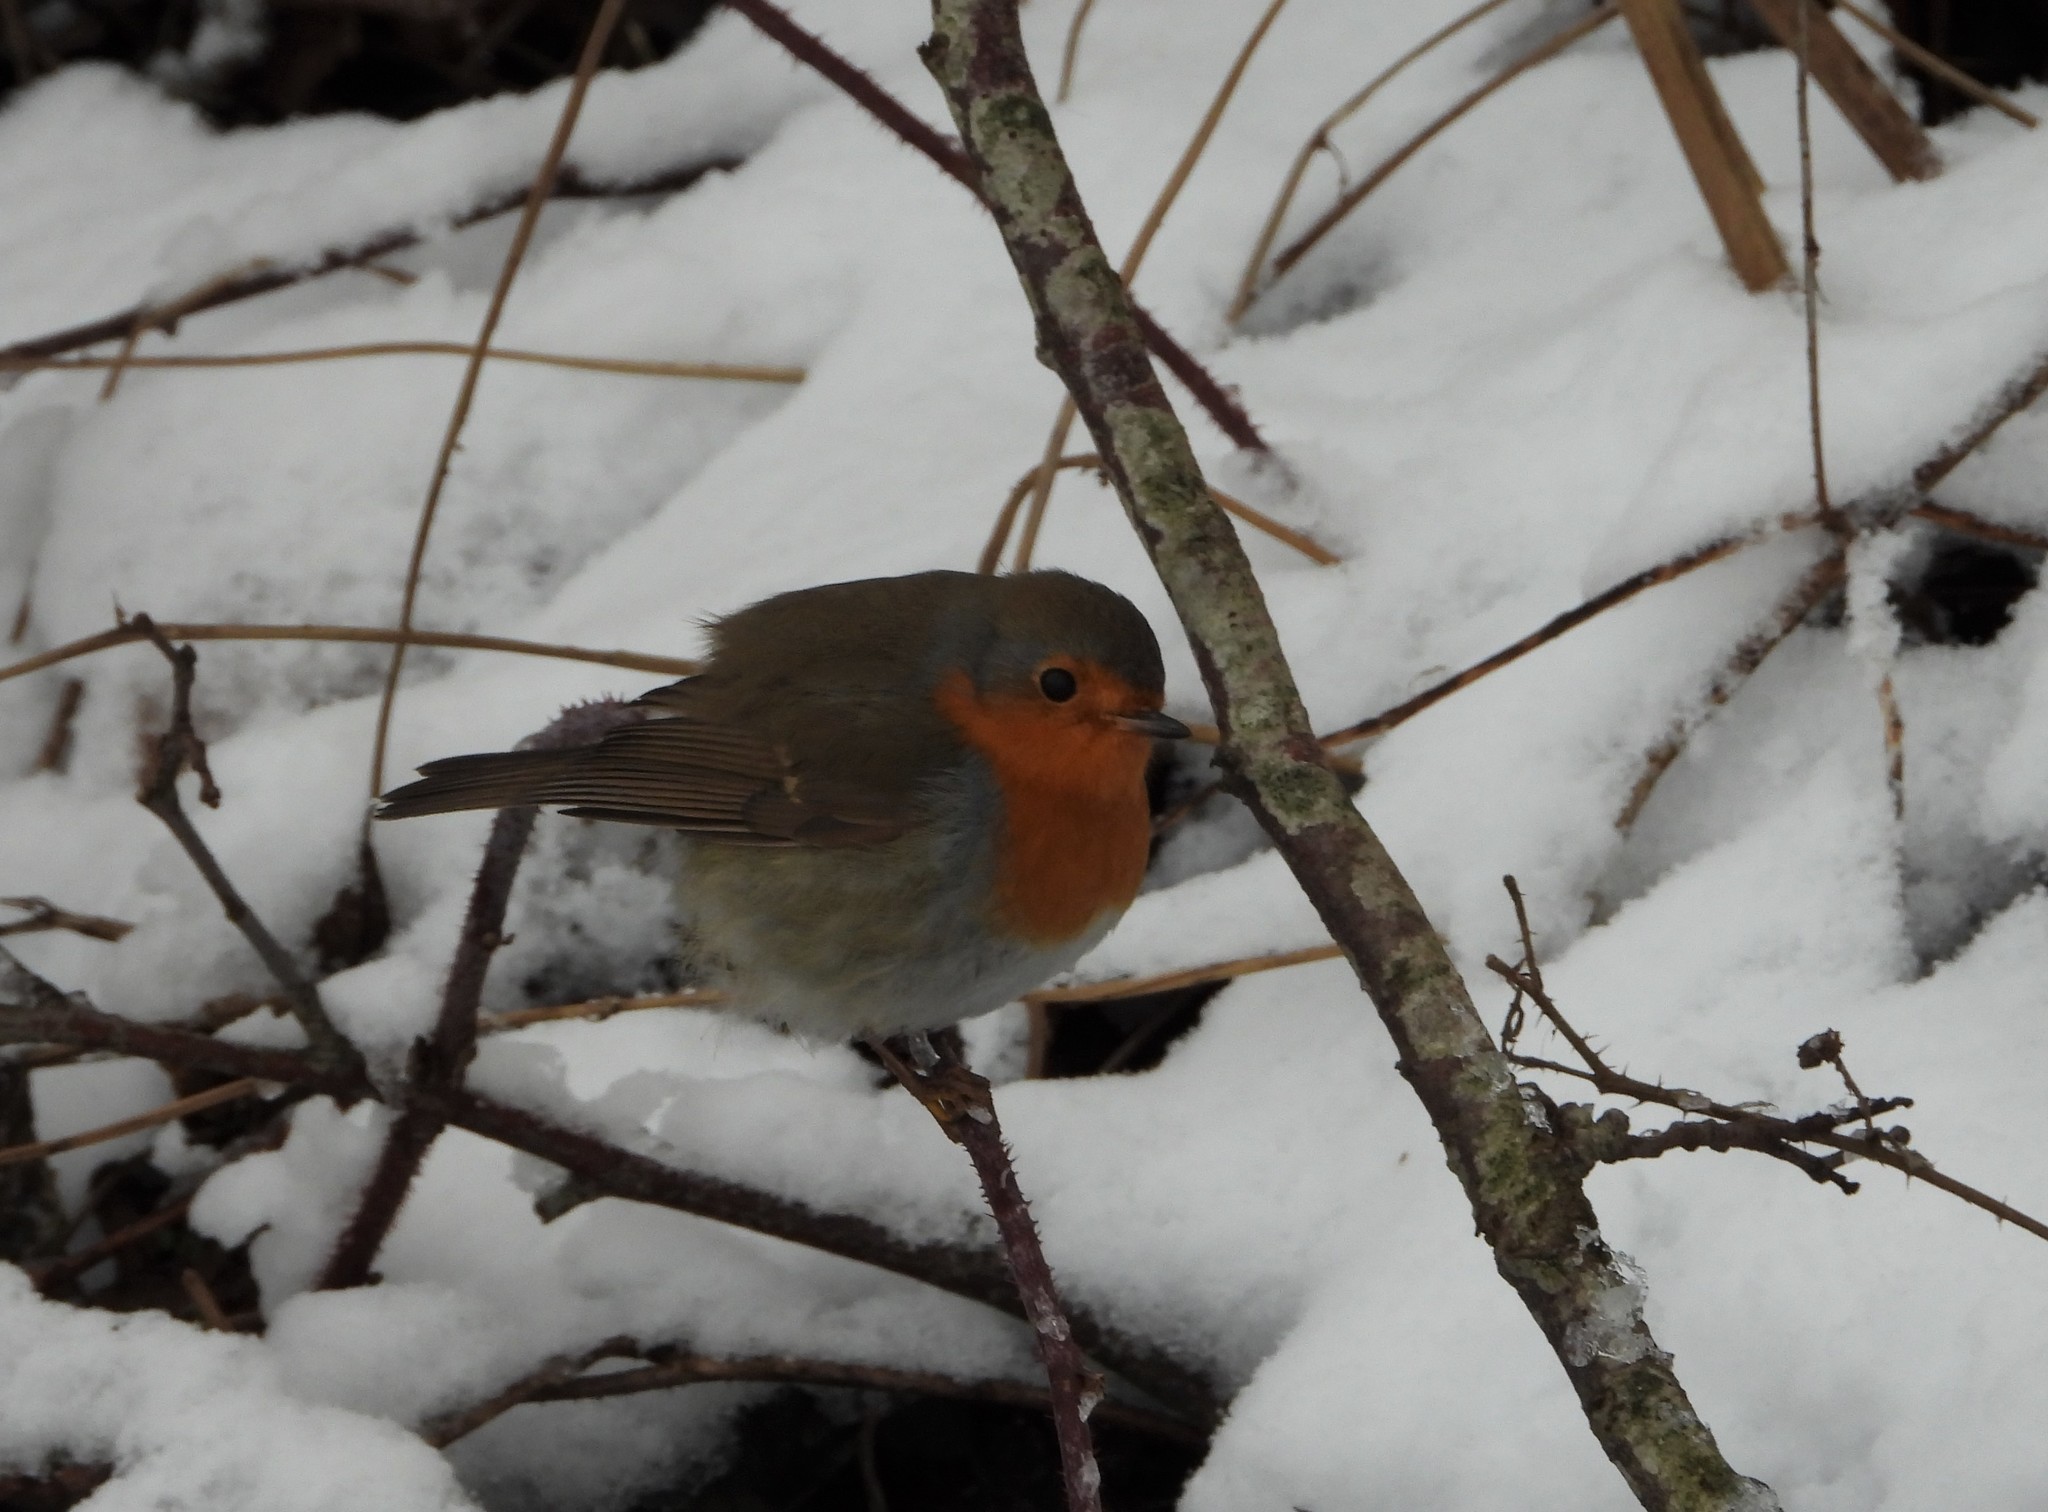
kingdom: Animalia
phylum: Chordata
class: Aves
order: Passeriformes
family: Muscicapidae
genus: Erithacus
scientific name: Erithacus rubecula
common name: European robin
